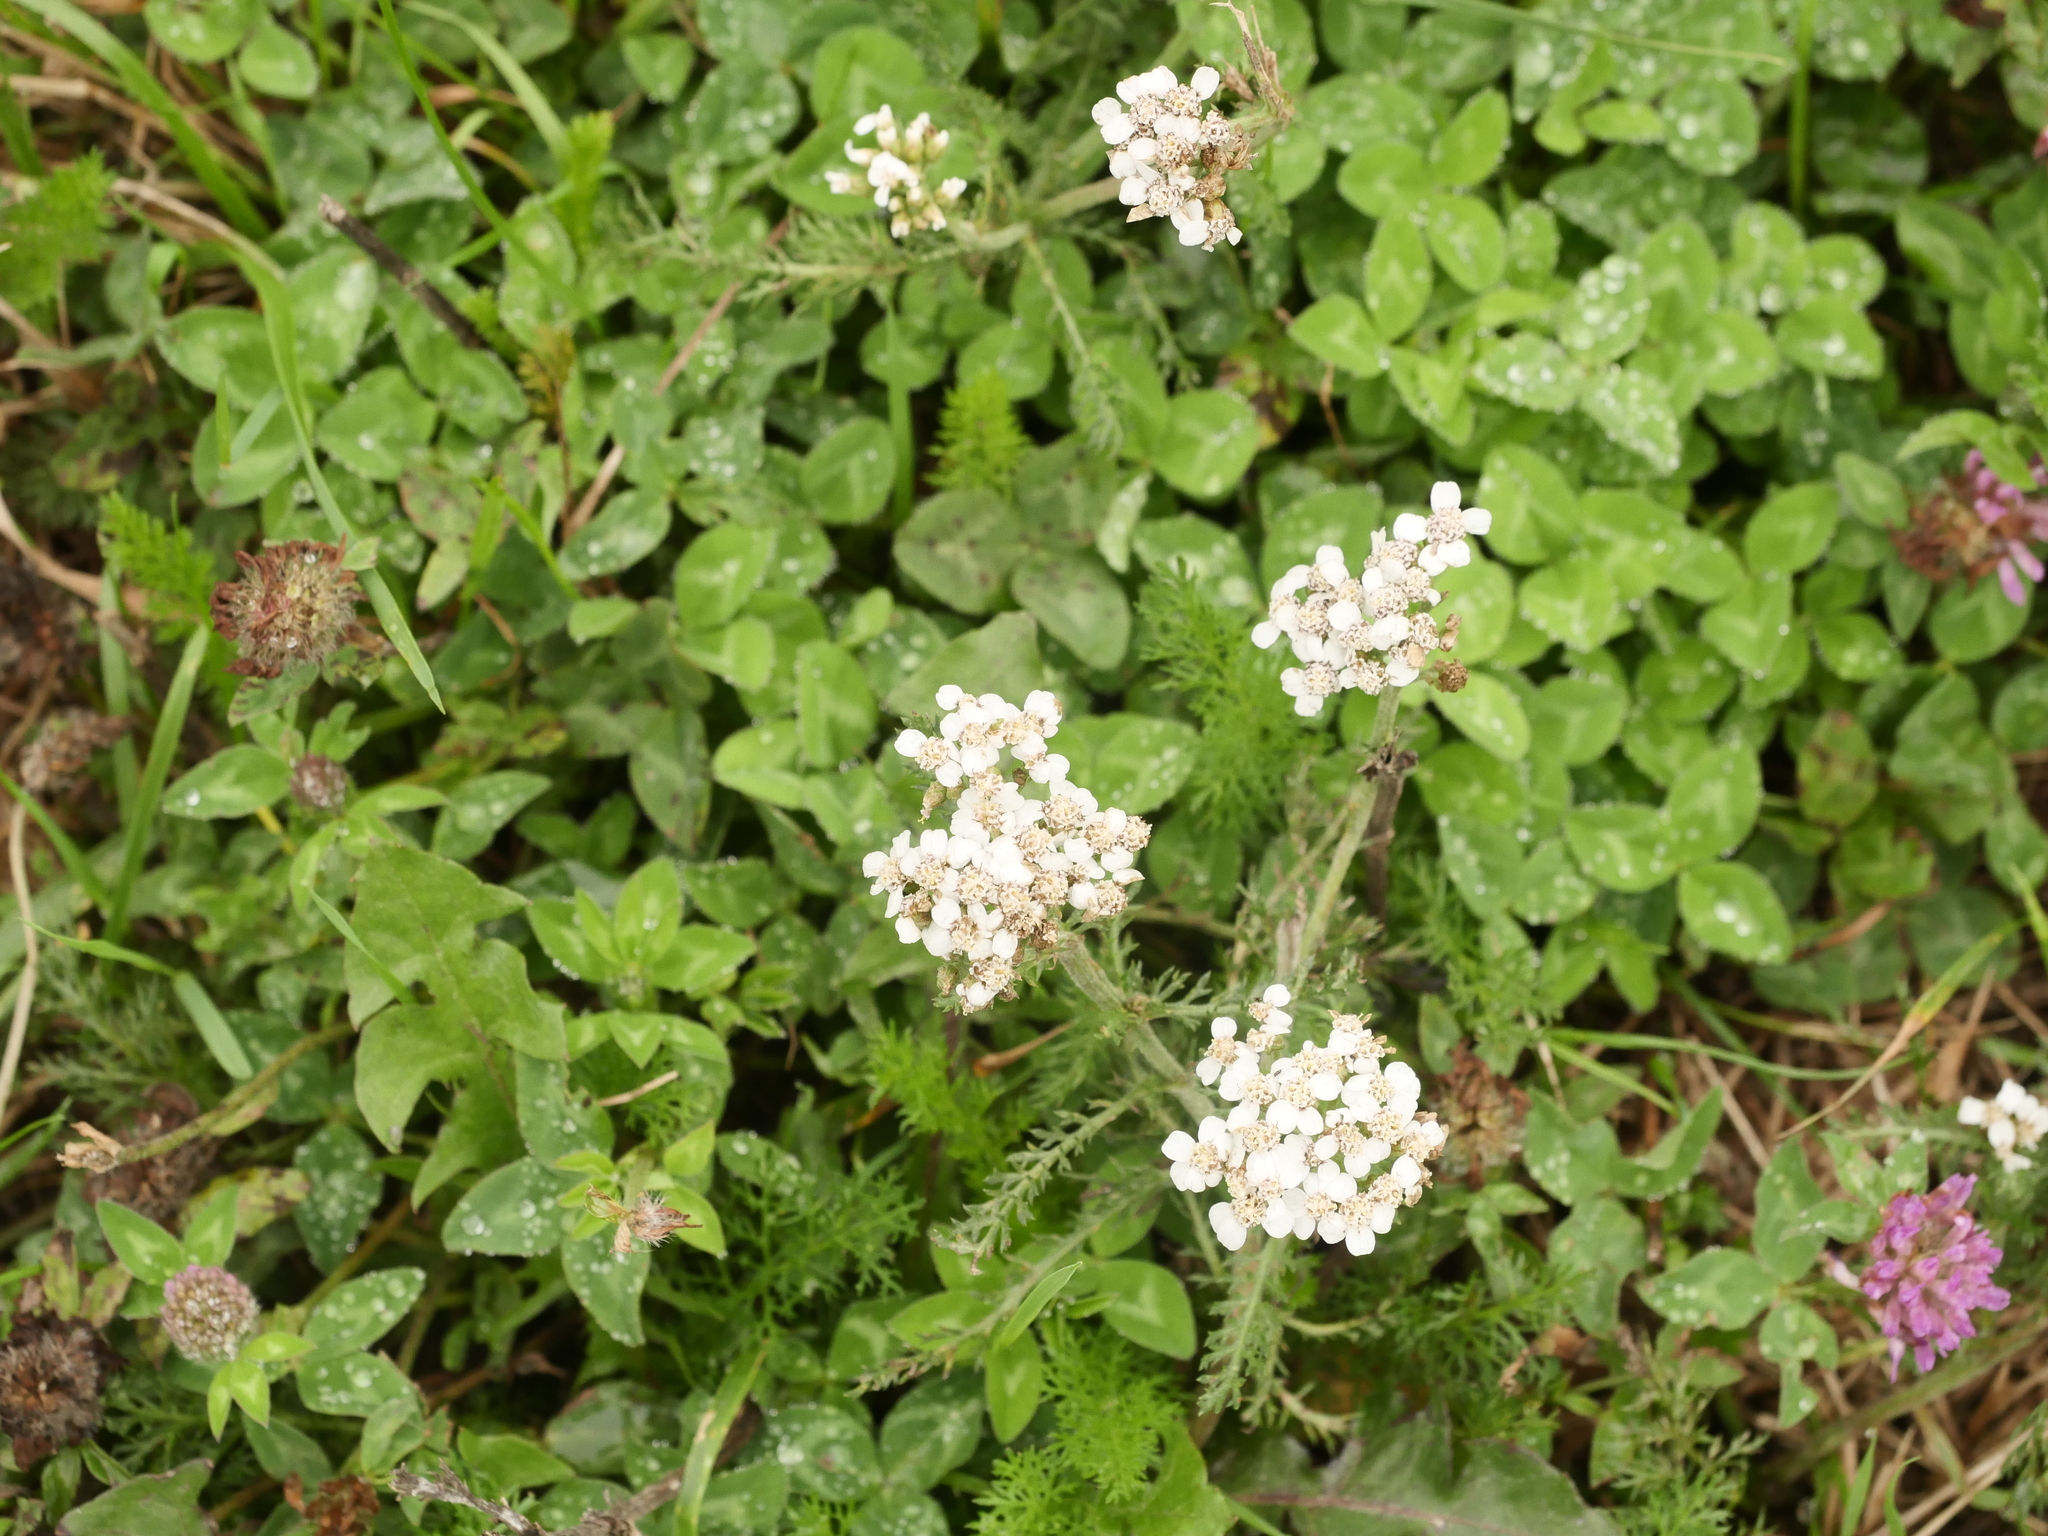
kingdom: Plantae
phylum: Tracheophyta
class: Magnoliopsida
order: Asterales
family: Asteraceae
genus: Achillea
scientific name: Achillea millefolium
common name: Yarrow
